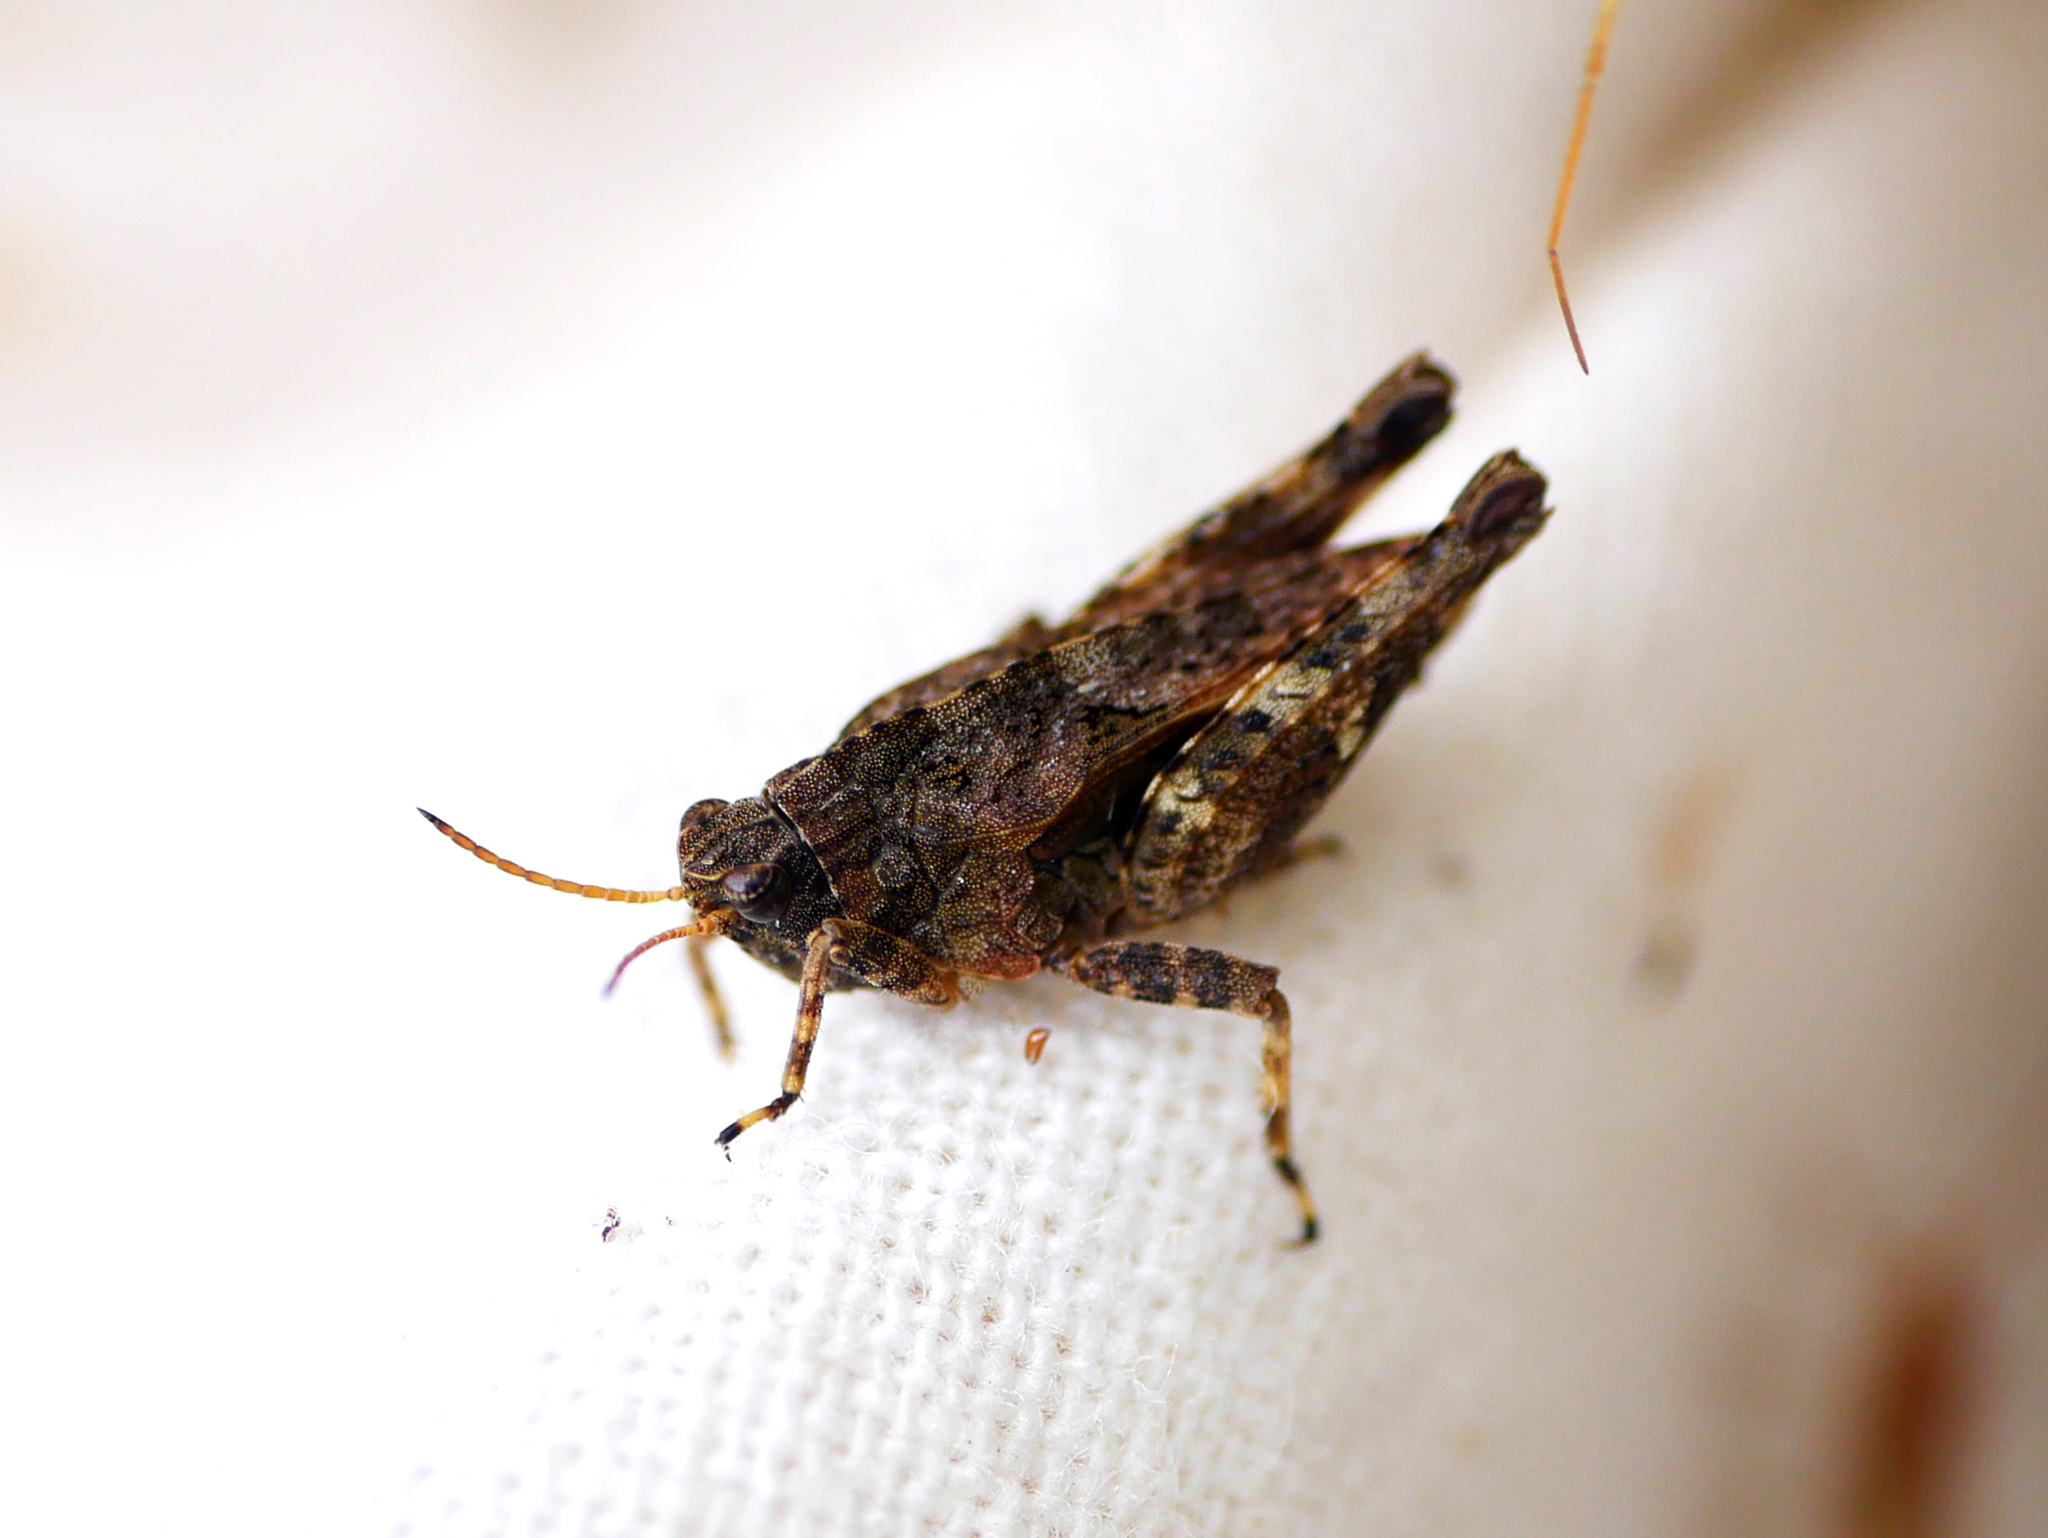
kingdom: Animalia
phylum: Arthropoda
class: Insecta
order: Orthoptera
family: Tetrigidae
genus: Tetrix
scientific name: Tetrix undulata
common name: Common groundhopper
